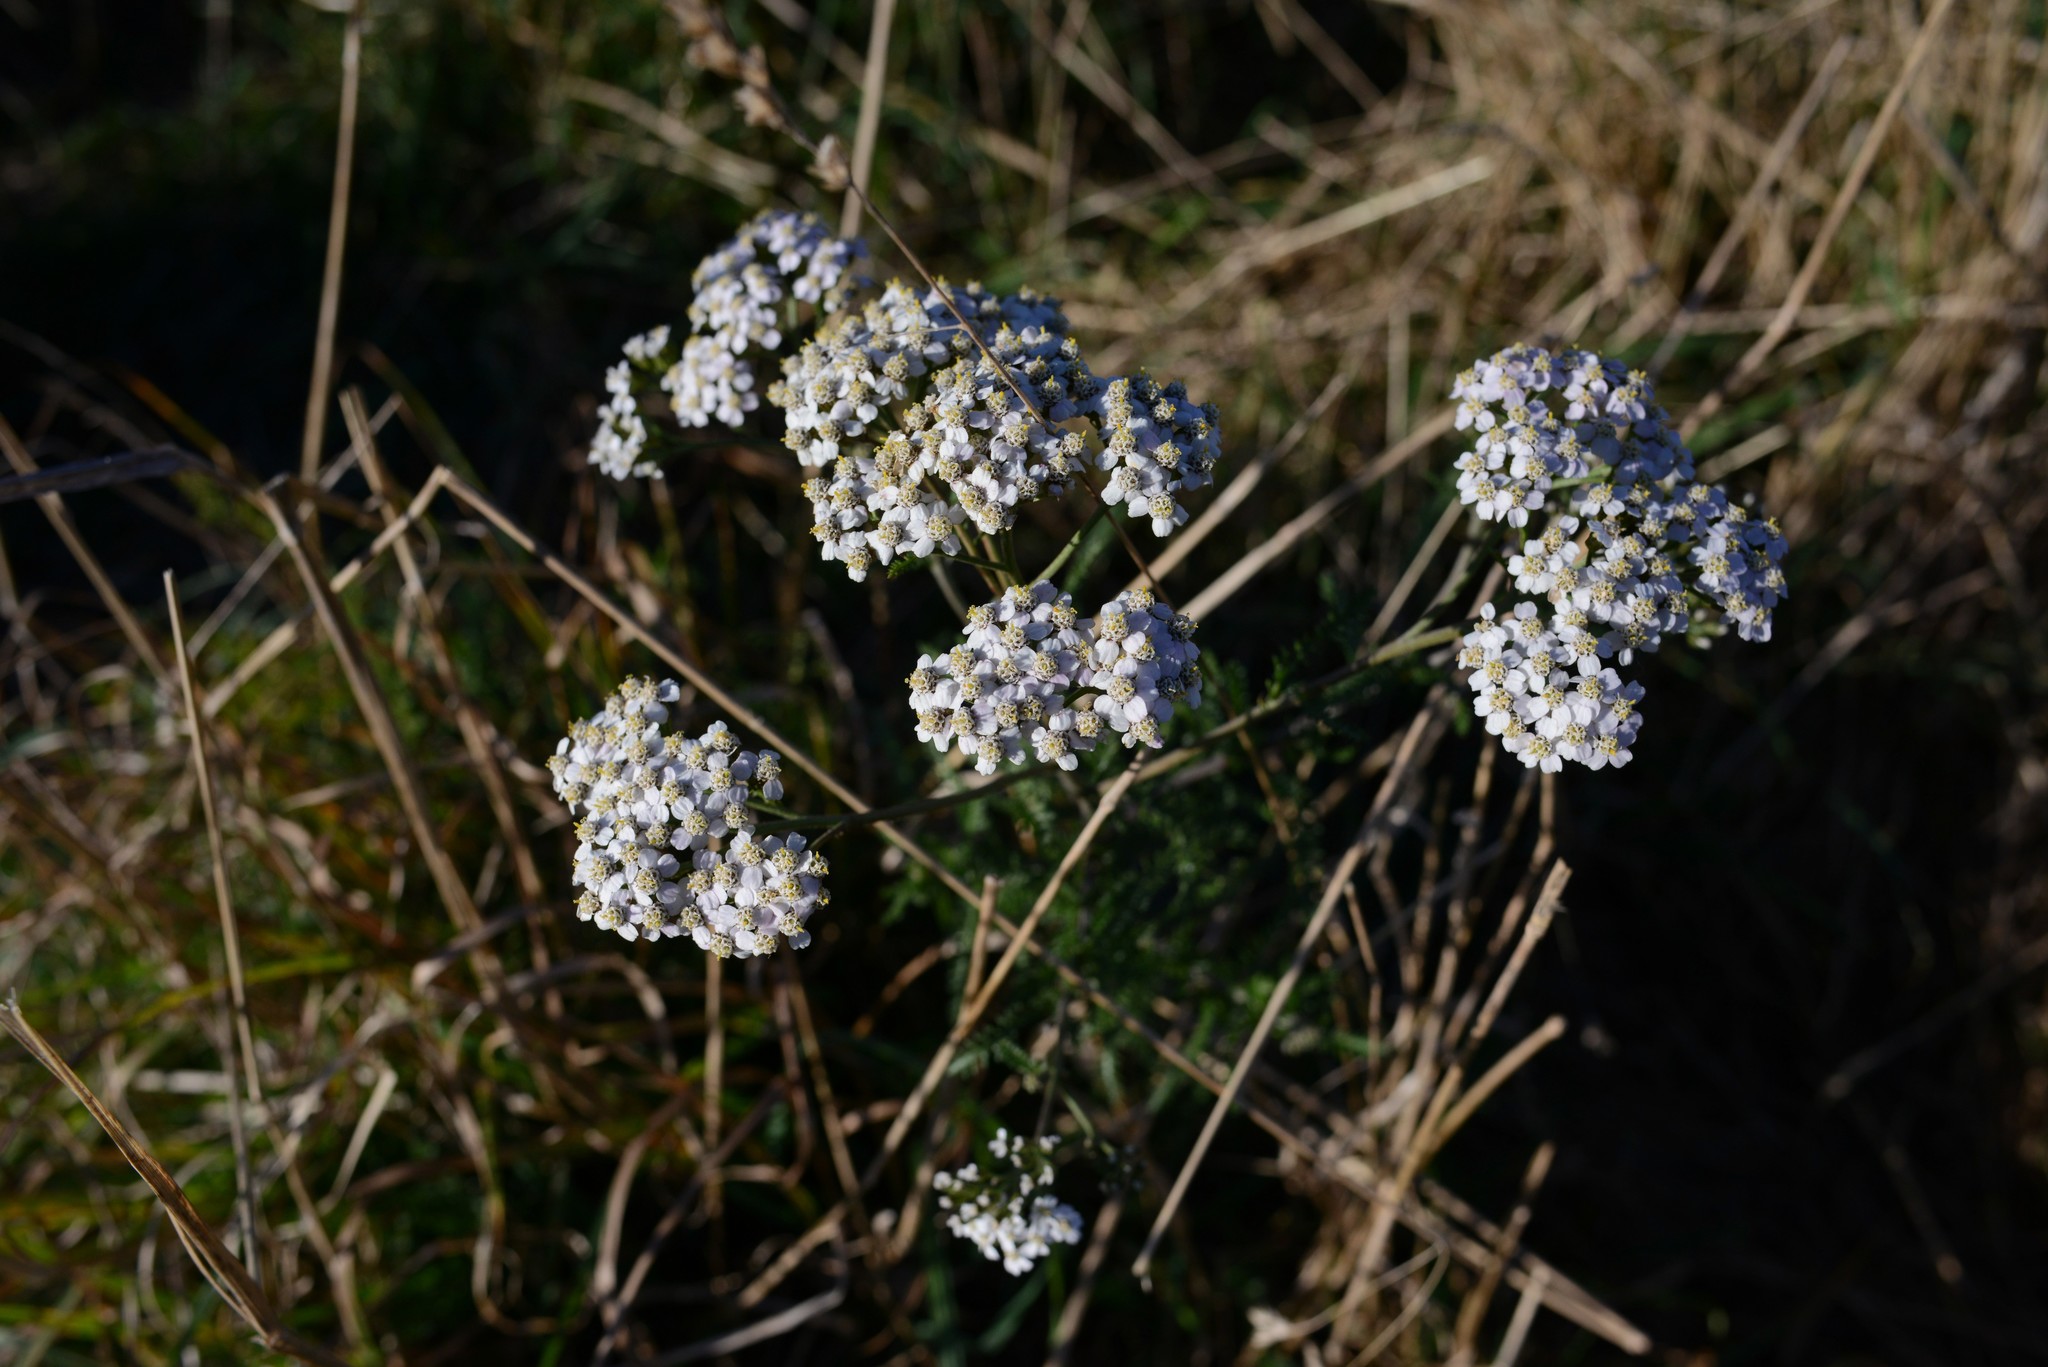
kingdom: Plantae
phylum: Tracheophyta
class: Magnoliopsida
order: Asterales
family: Asteraceae
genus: Achillea
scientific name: Achillea millefolium
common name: Yarrow
